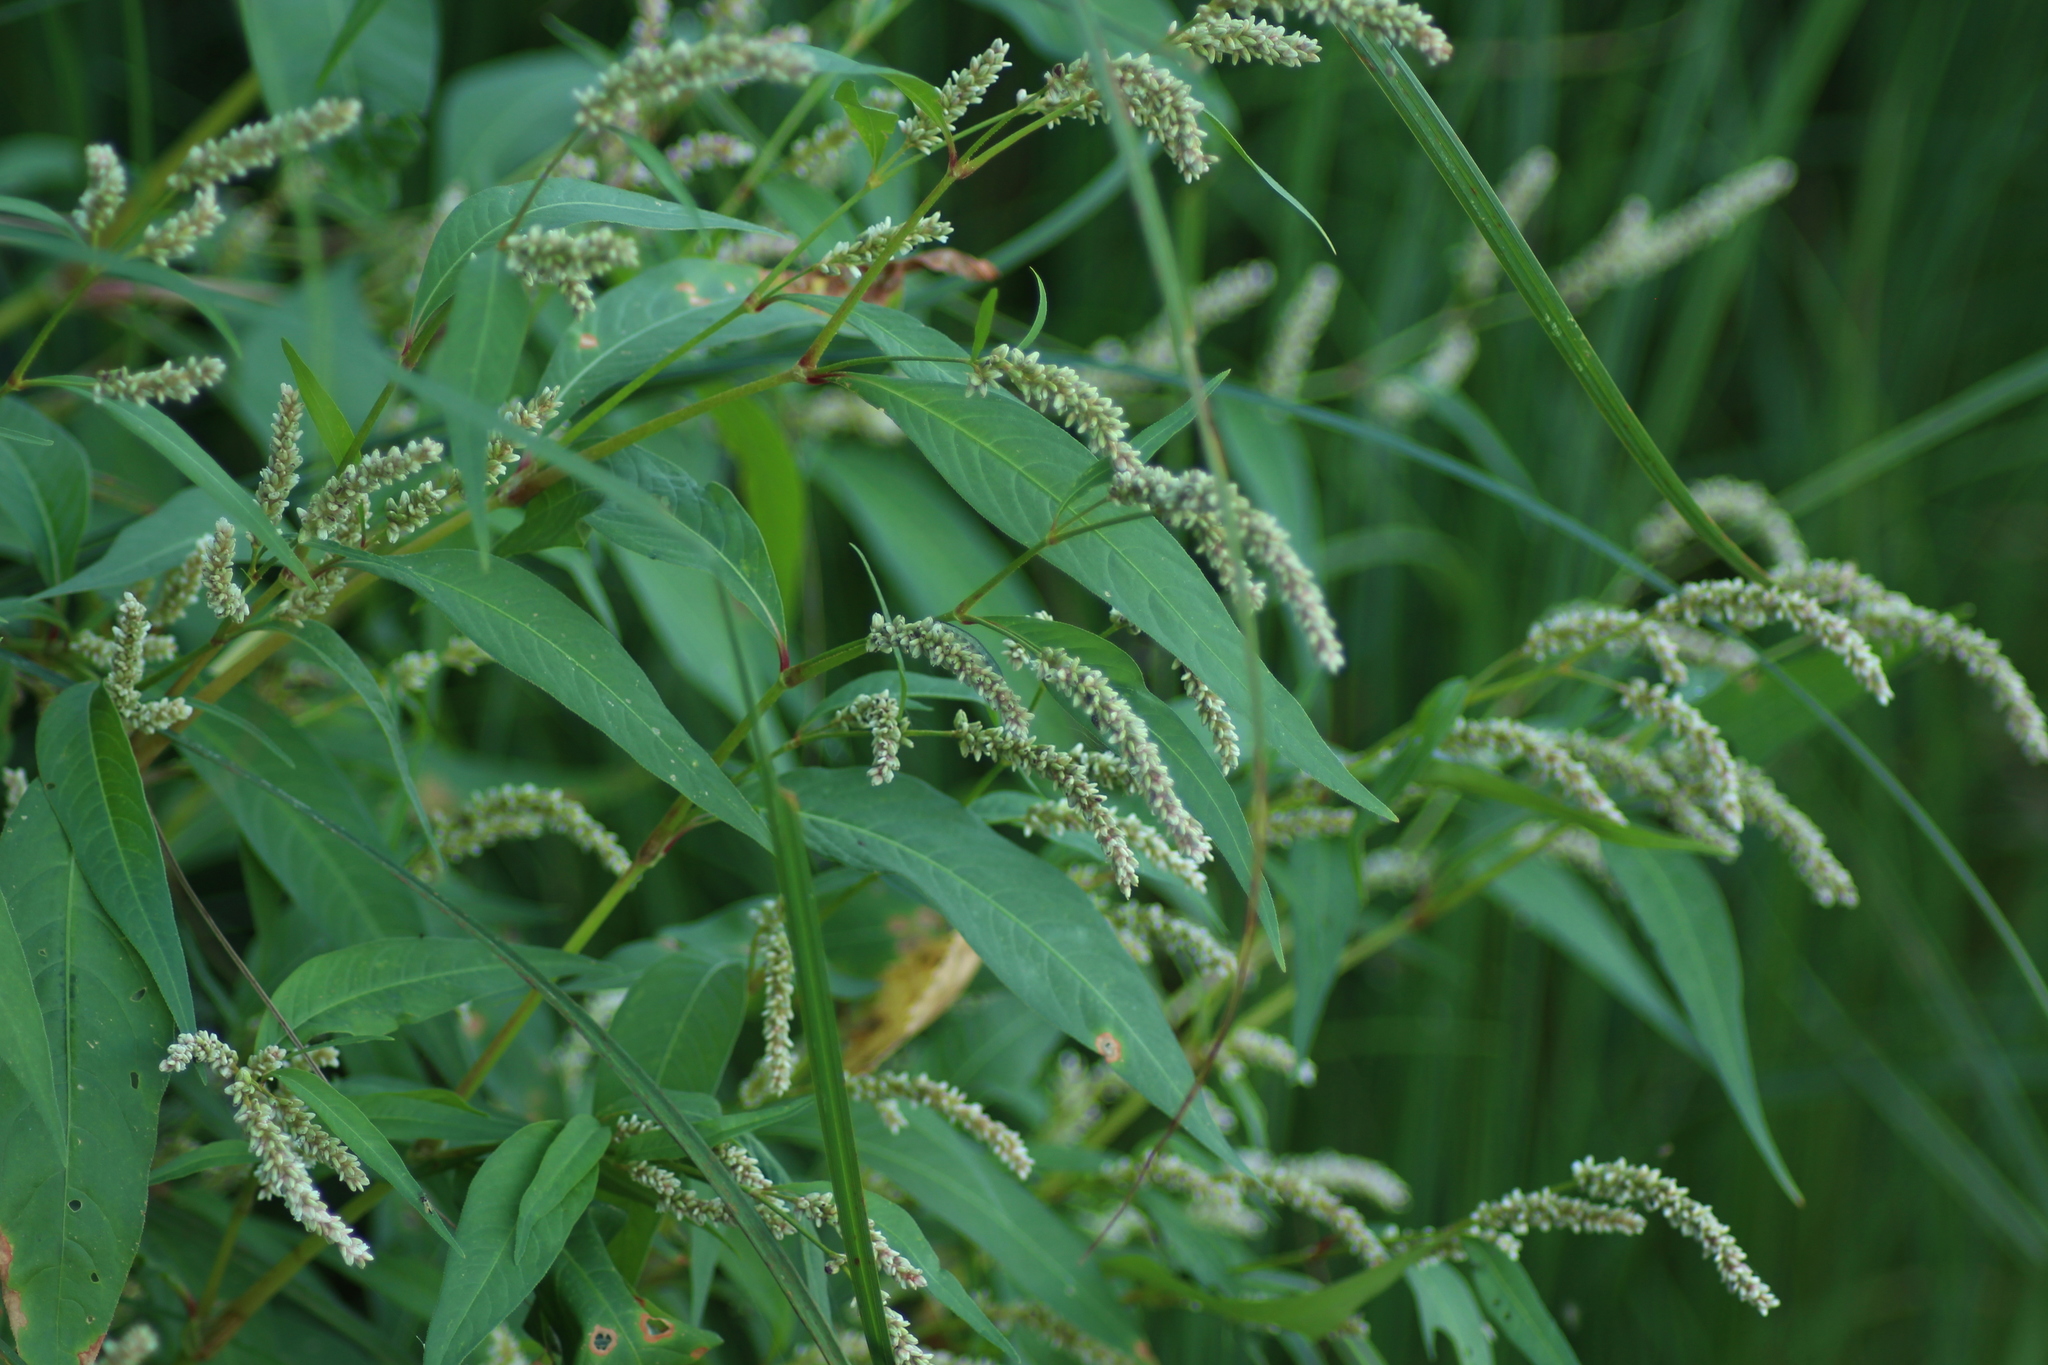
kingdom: Plantae
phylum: Tracheophyta
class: Magnoliopsida
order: Caryophyllales
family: Polygonaceae
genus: Persicaria
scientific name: Persicaria lapathifolia
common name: Curlytop knotweed
